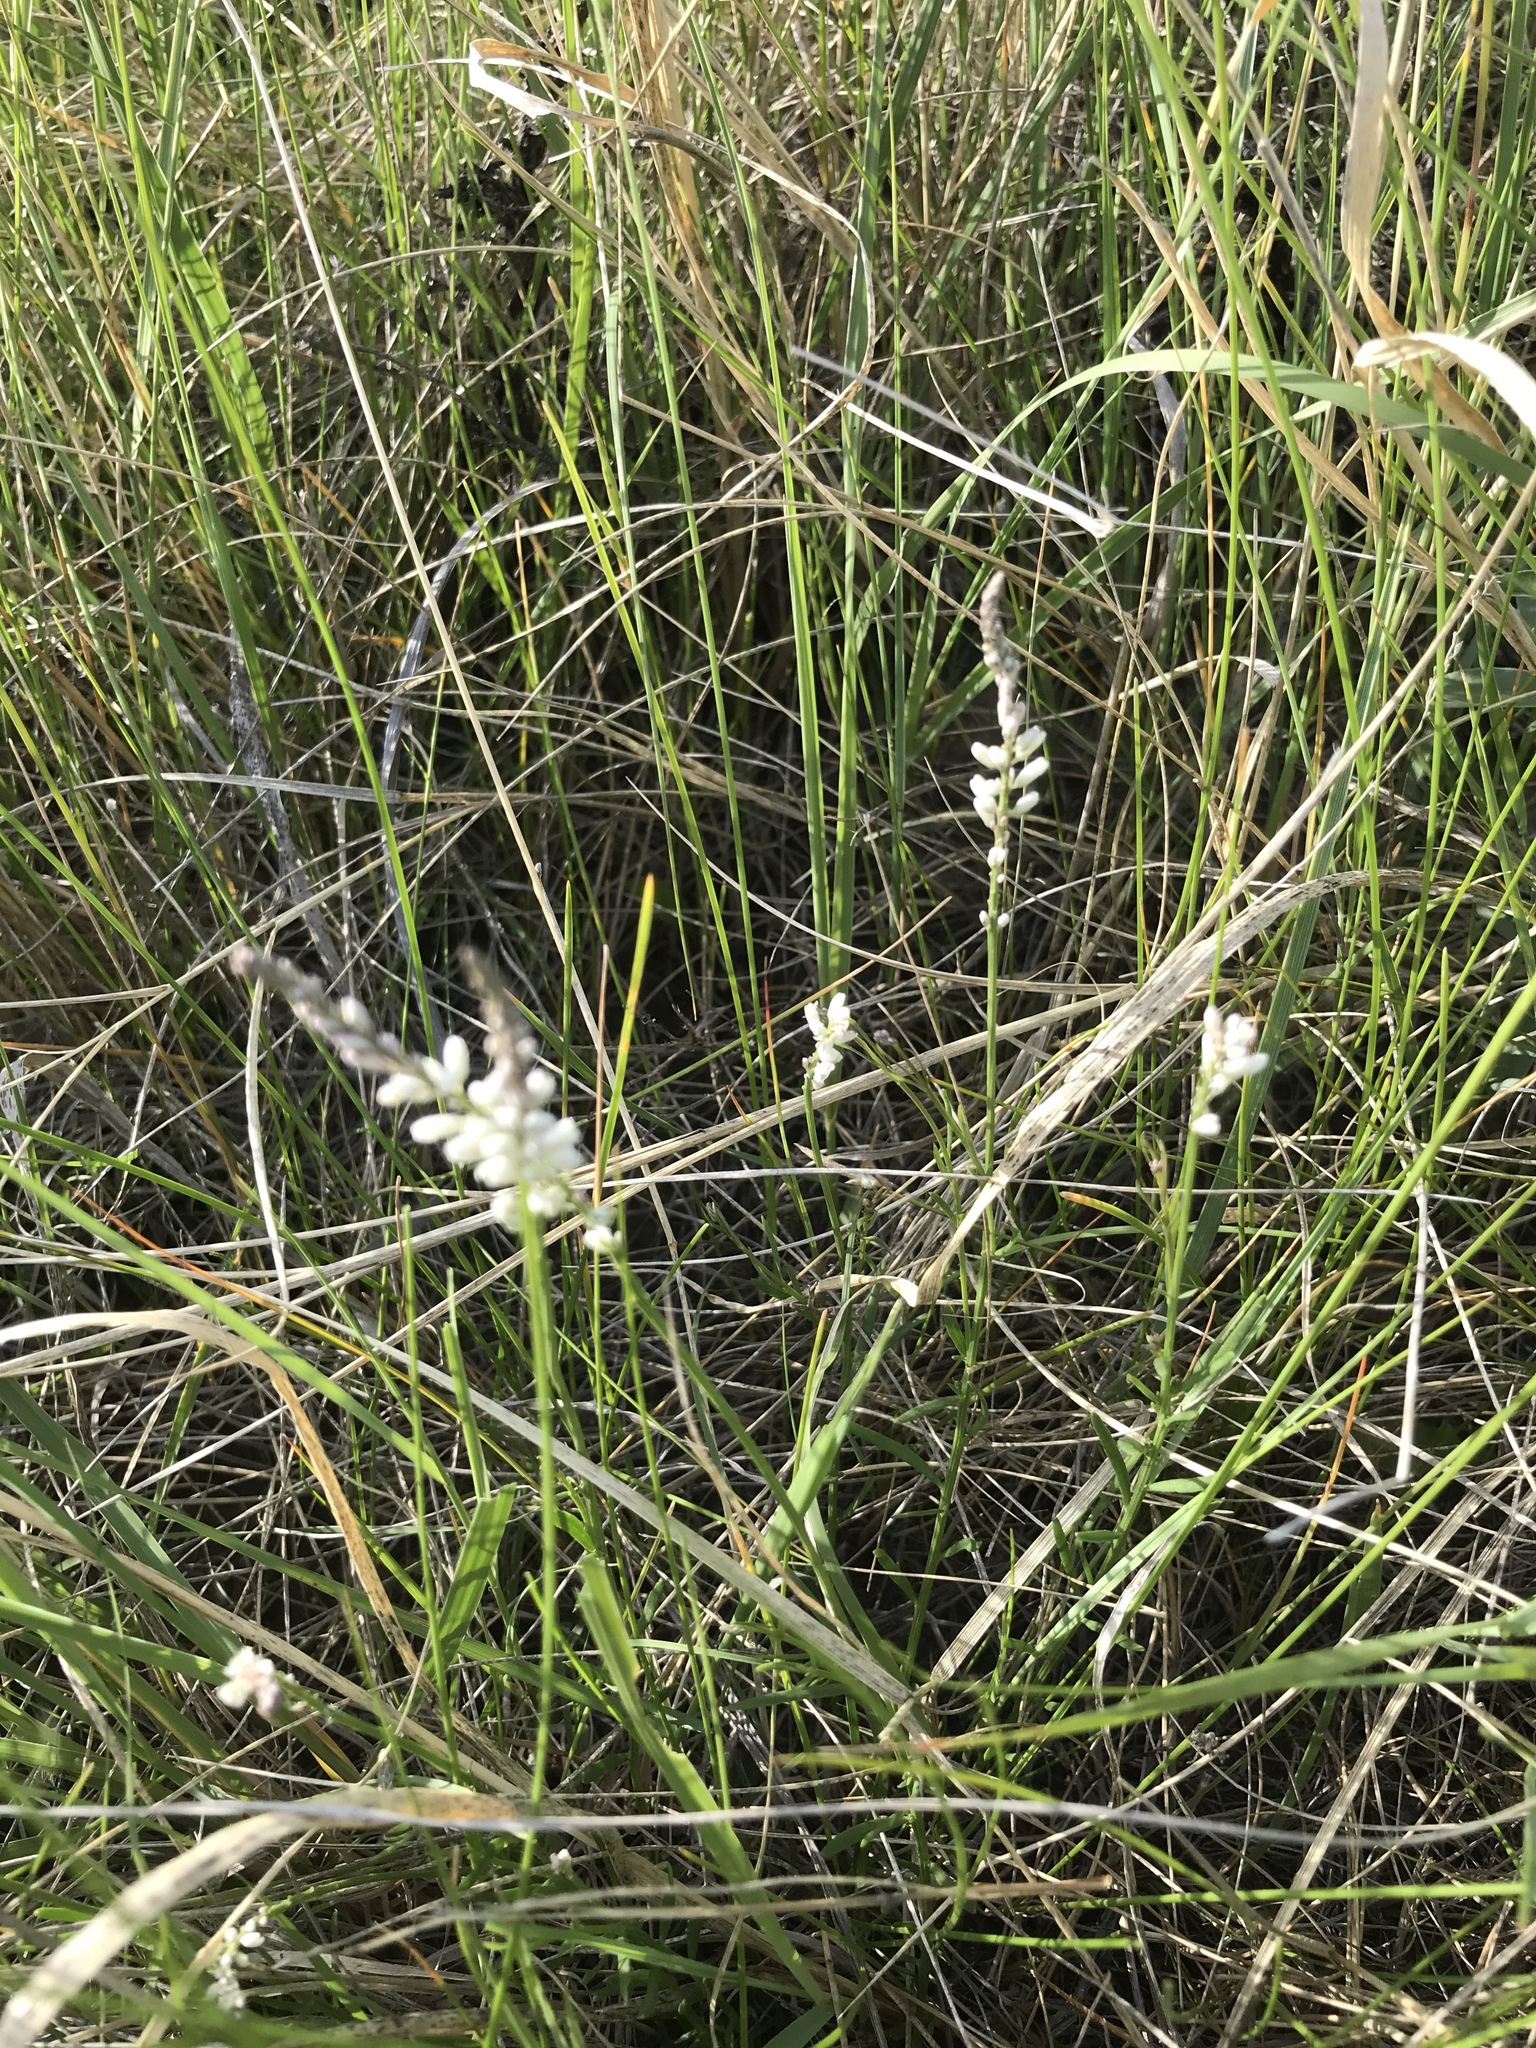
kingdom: Plantae
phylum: Tracheophyta
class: Magnoliopsida
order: Fabales
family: Polygalaceae
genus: Polygala
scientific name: Polygala alba
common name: White milkwort
